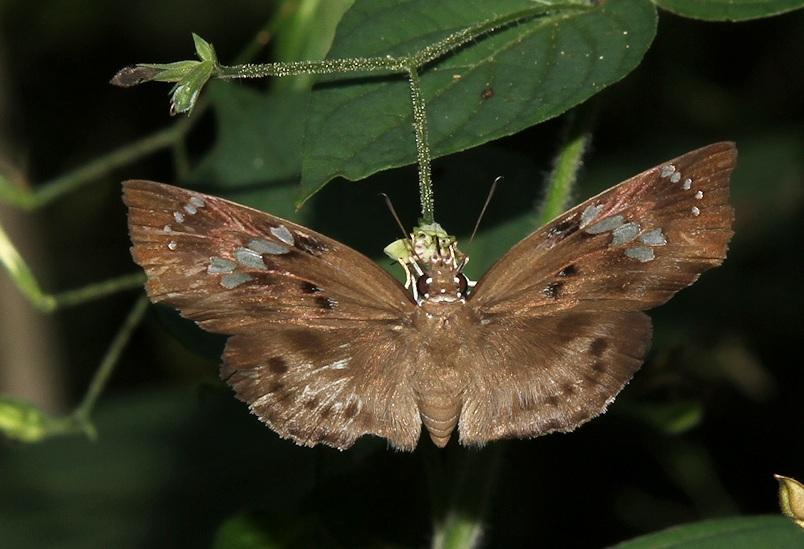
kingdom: Animalia
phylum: Arthropoda
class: Insecta
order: Lepidoptera
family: Hesperiidae
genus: Tagiades
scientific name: Tagiades flesus
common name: Clouded flat
